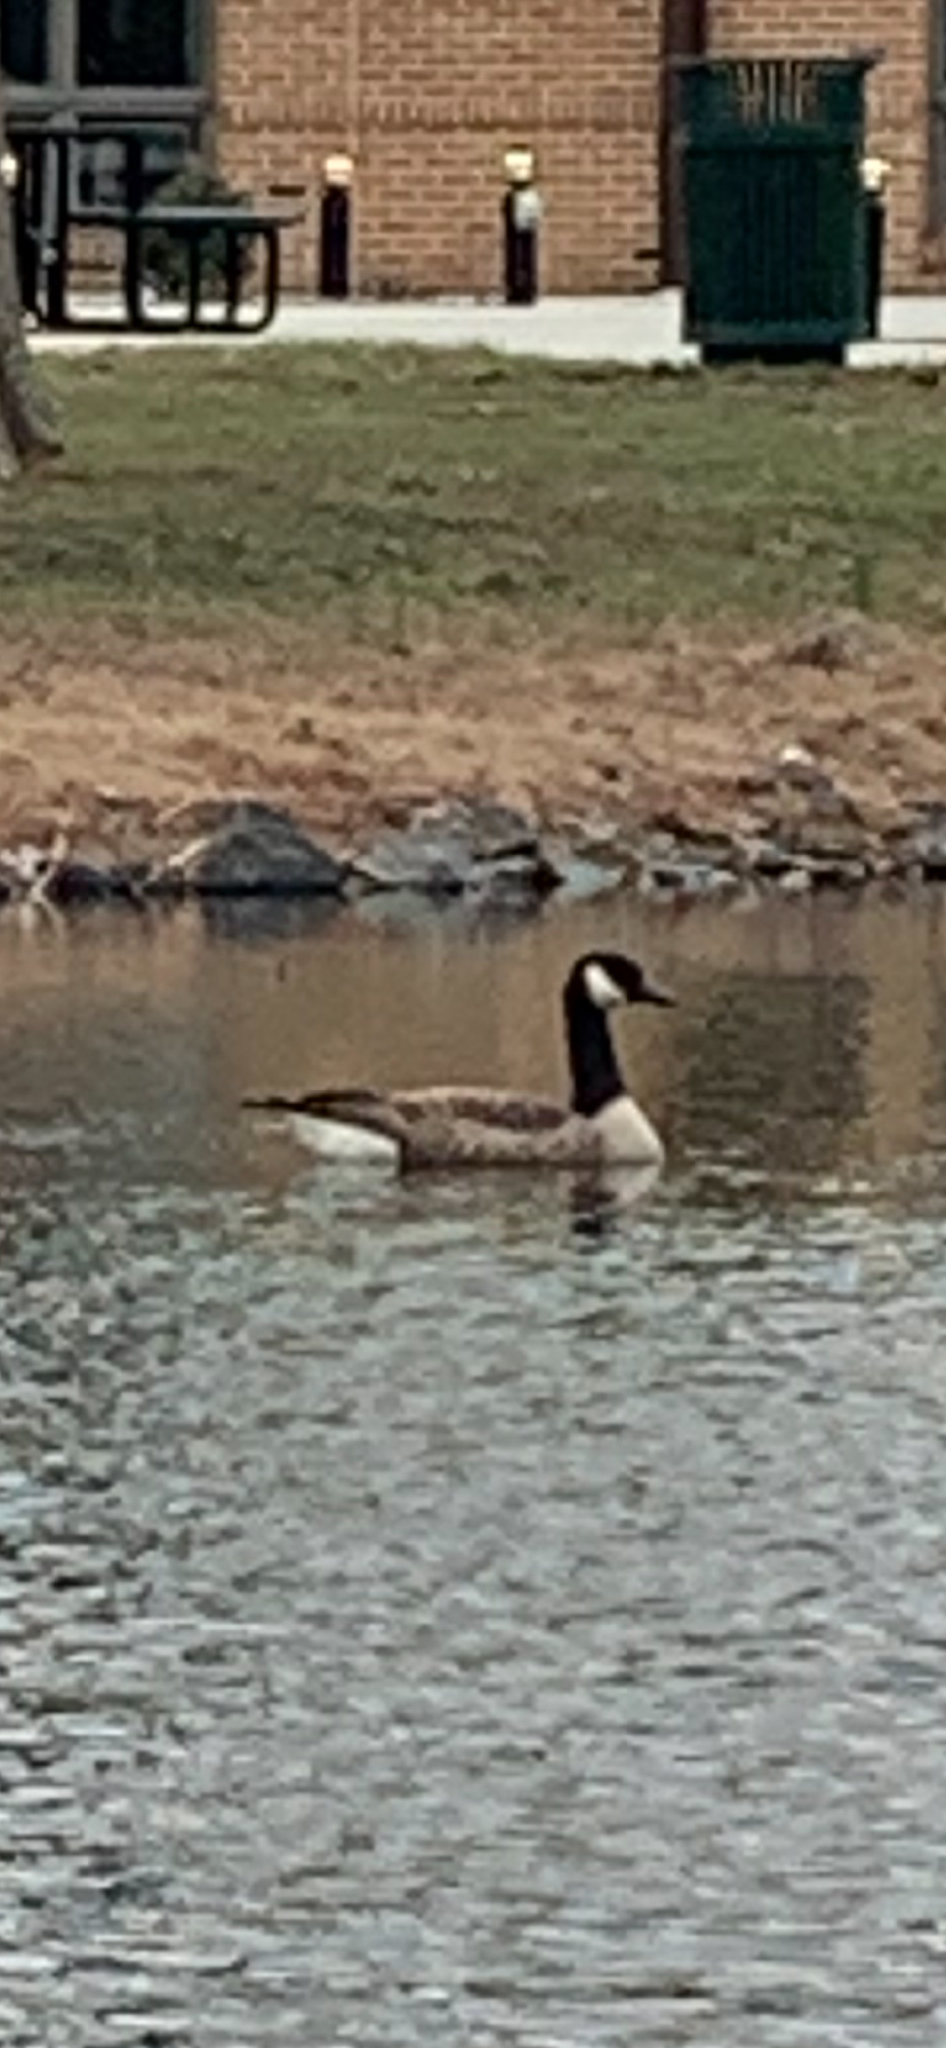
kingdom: Animalia
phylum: Chordata
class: Aves
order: Anseriformes
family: Anatidae
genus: Branta
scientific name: Branta canadensis
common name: Canada goose
